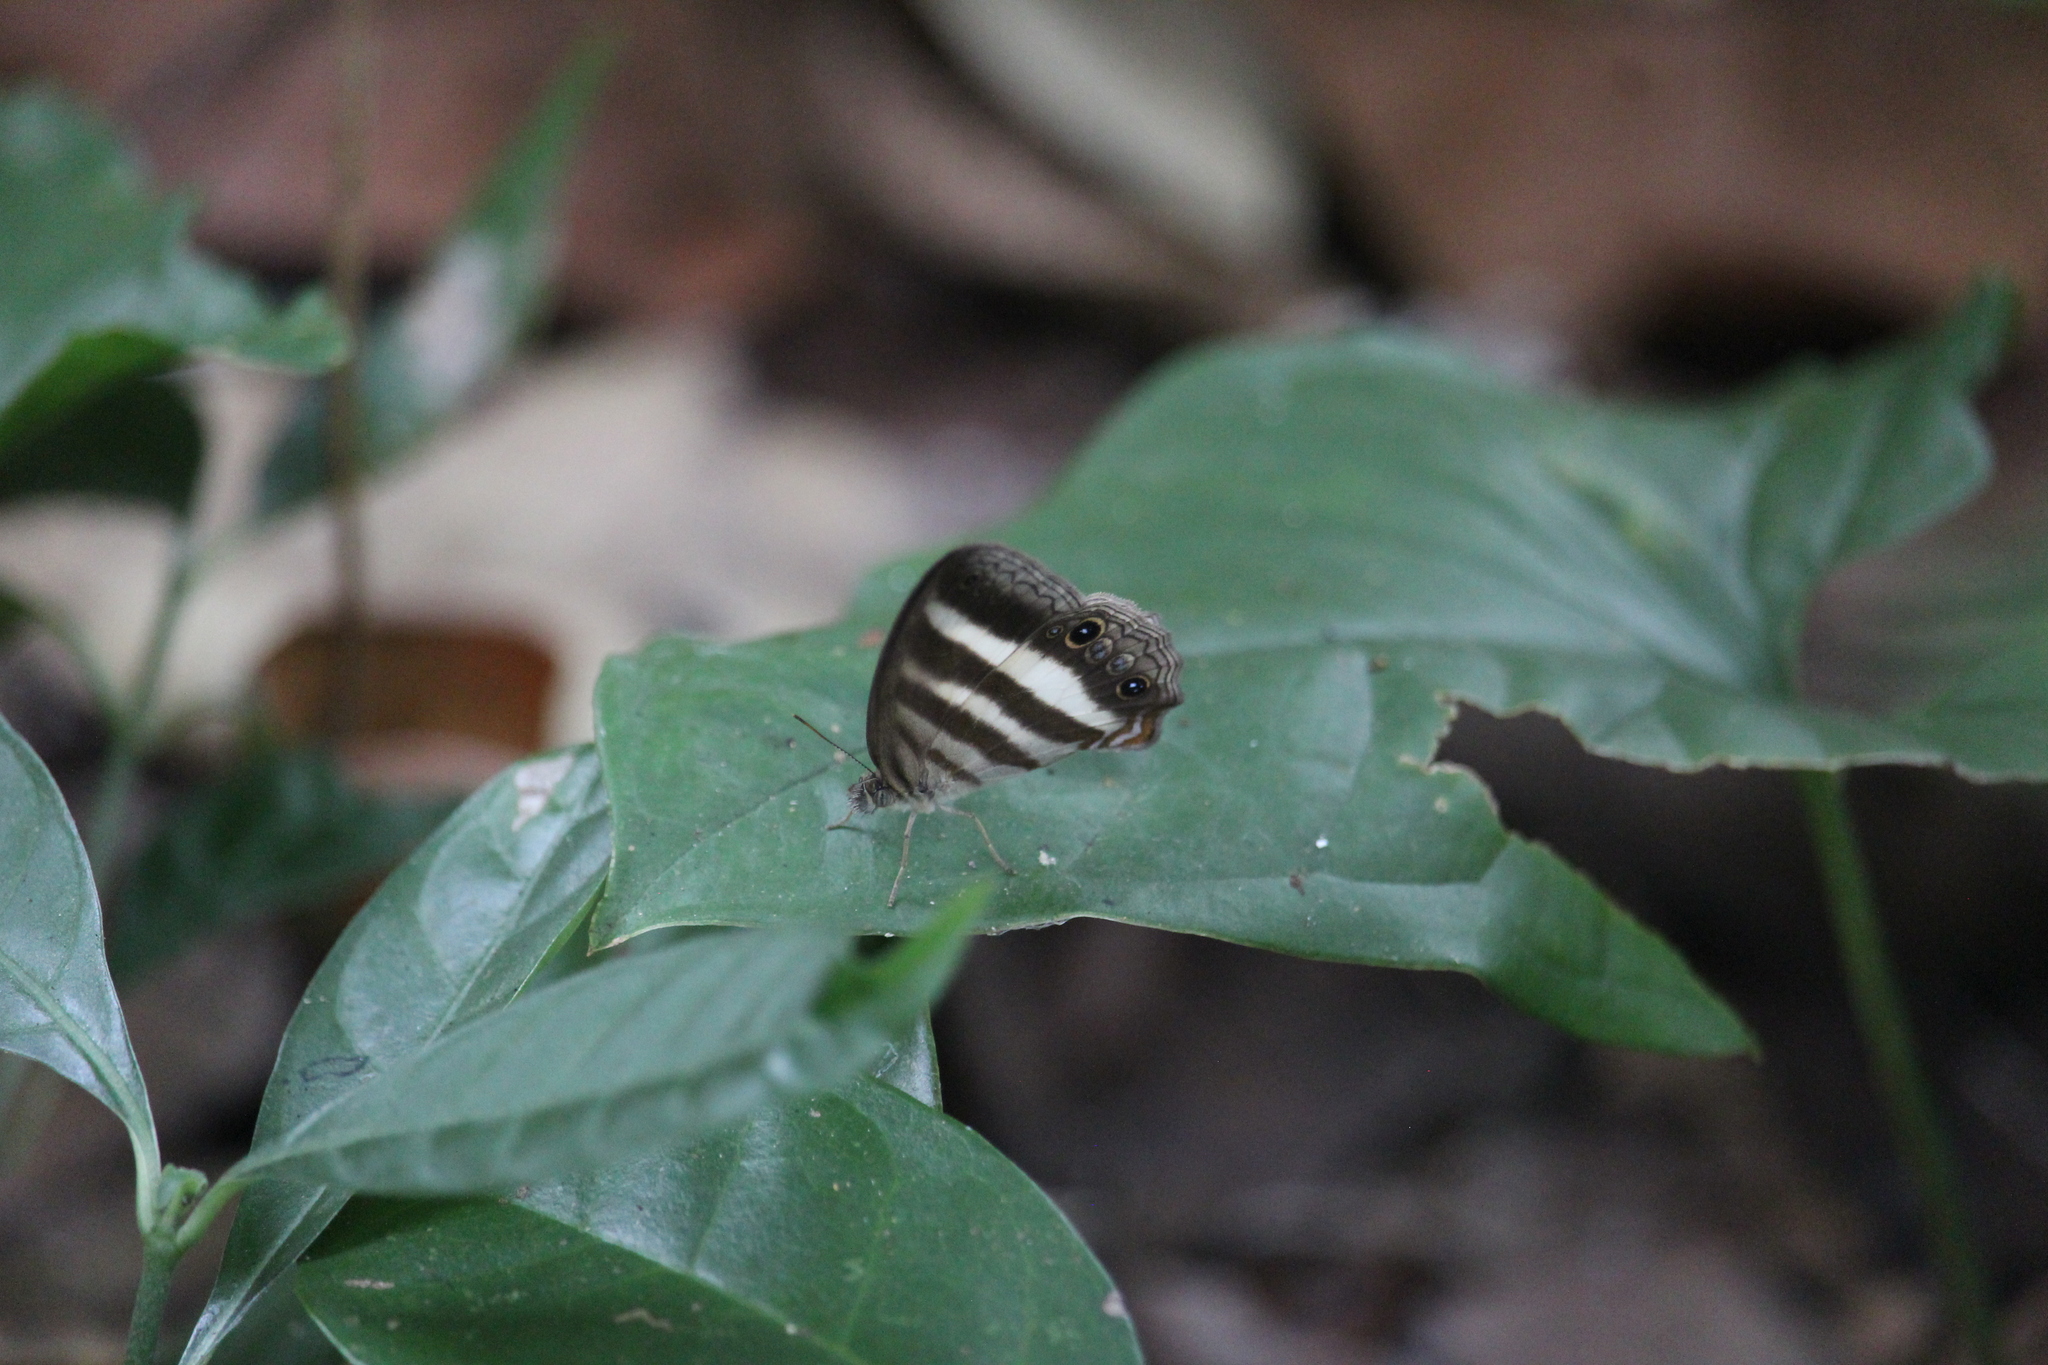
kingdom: Animalia
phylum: Arthropoda
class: Insecta
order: Lepidoptera
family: Nymphalidae
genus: Pareuptychia
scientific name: Pareuptychia hesione
